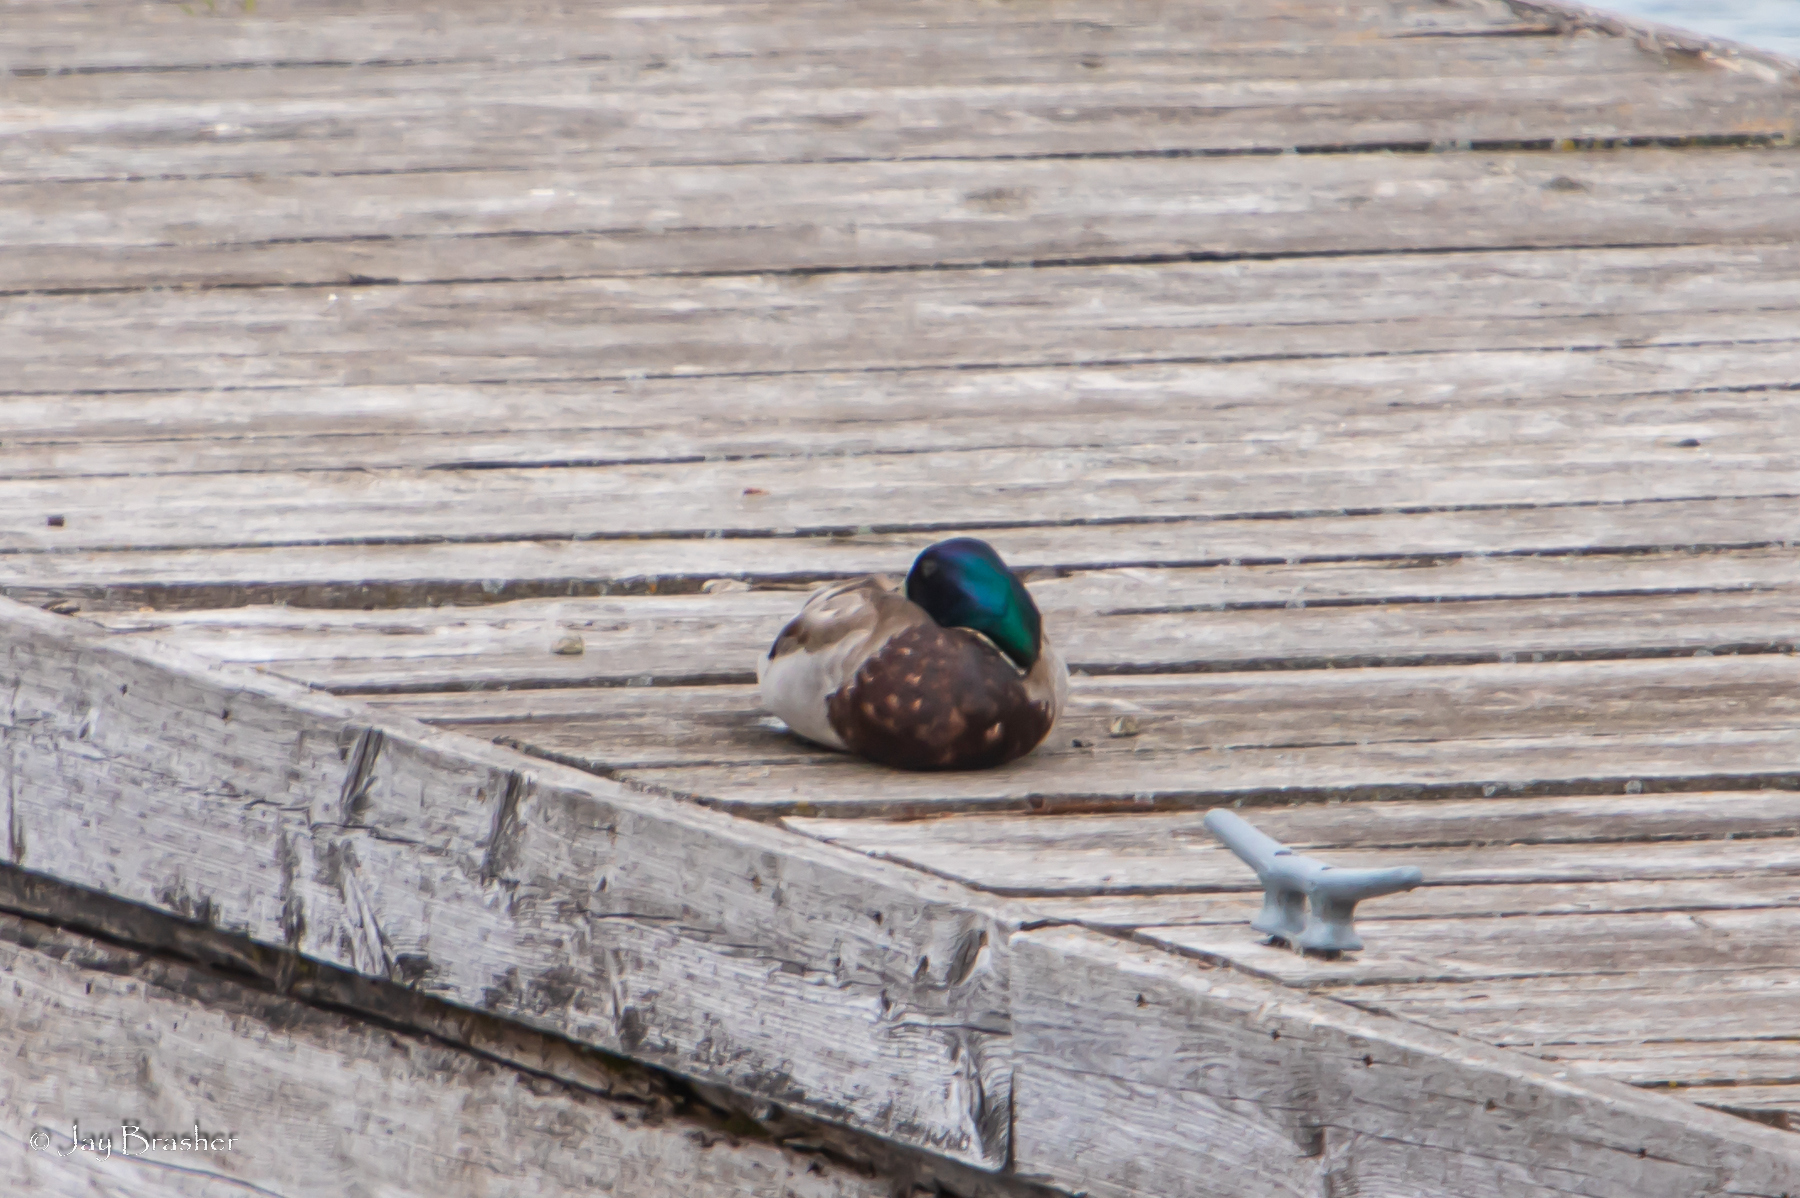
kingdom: Animalia
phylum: Chordata
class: Aves
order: Anseriformes
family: Anatidae
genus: Anas
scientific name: Anas platyrhynchos
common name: Mallard
